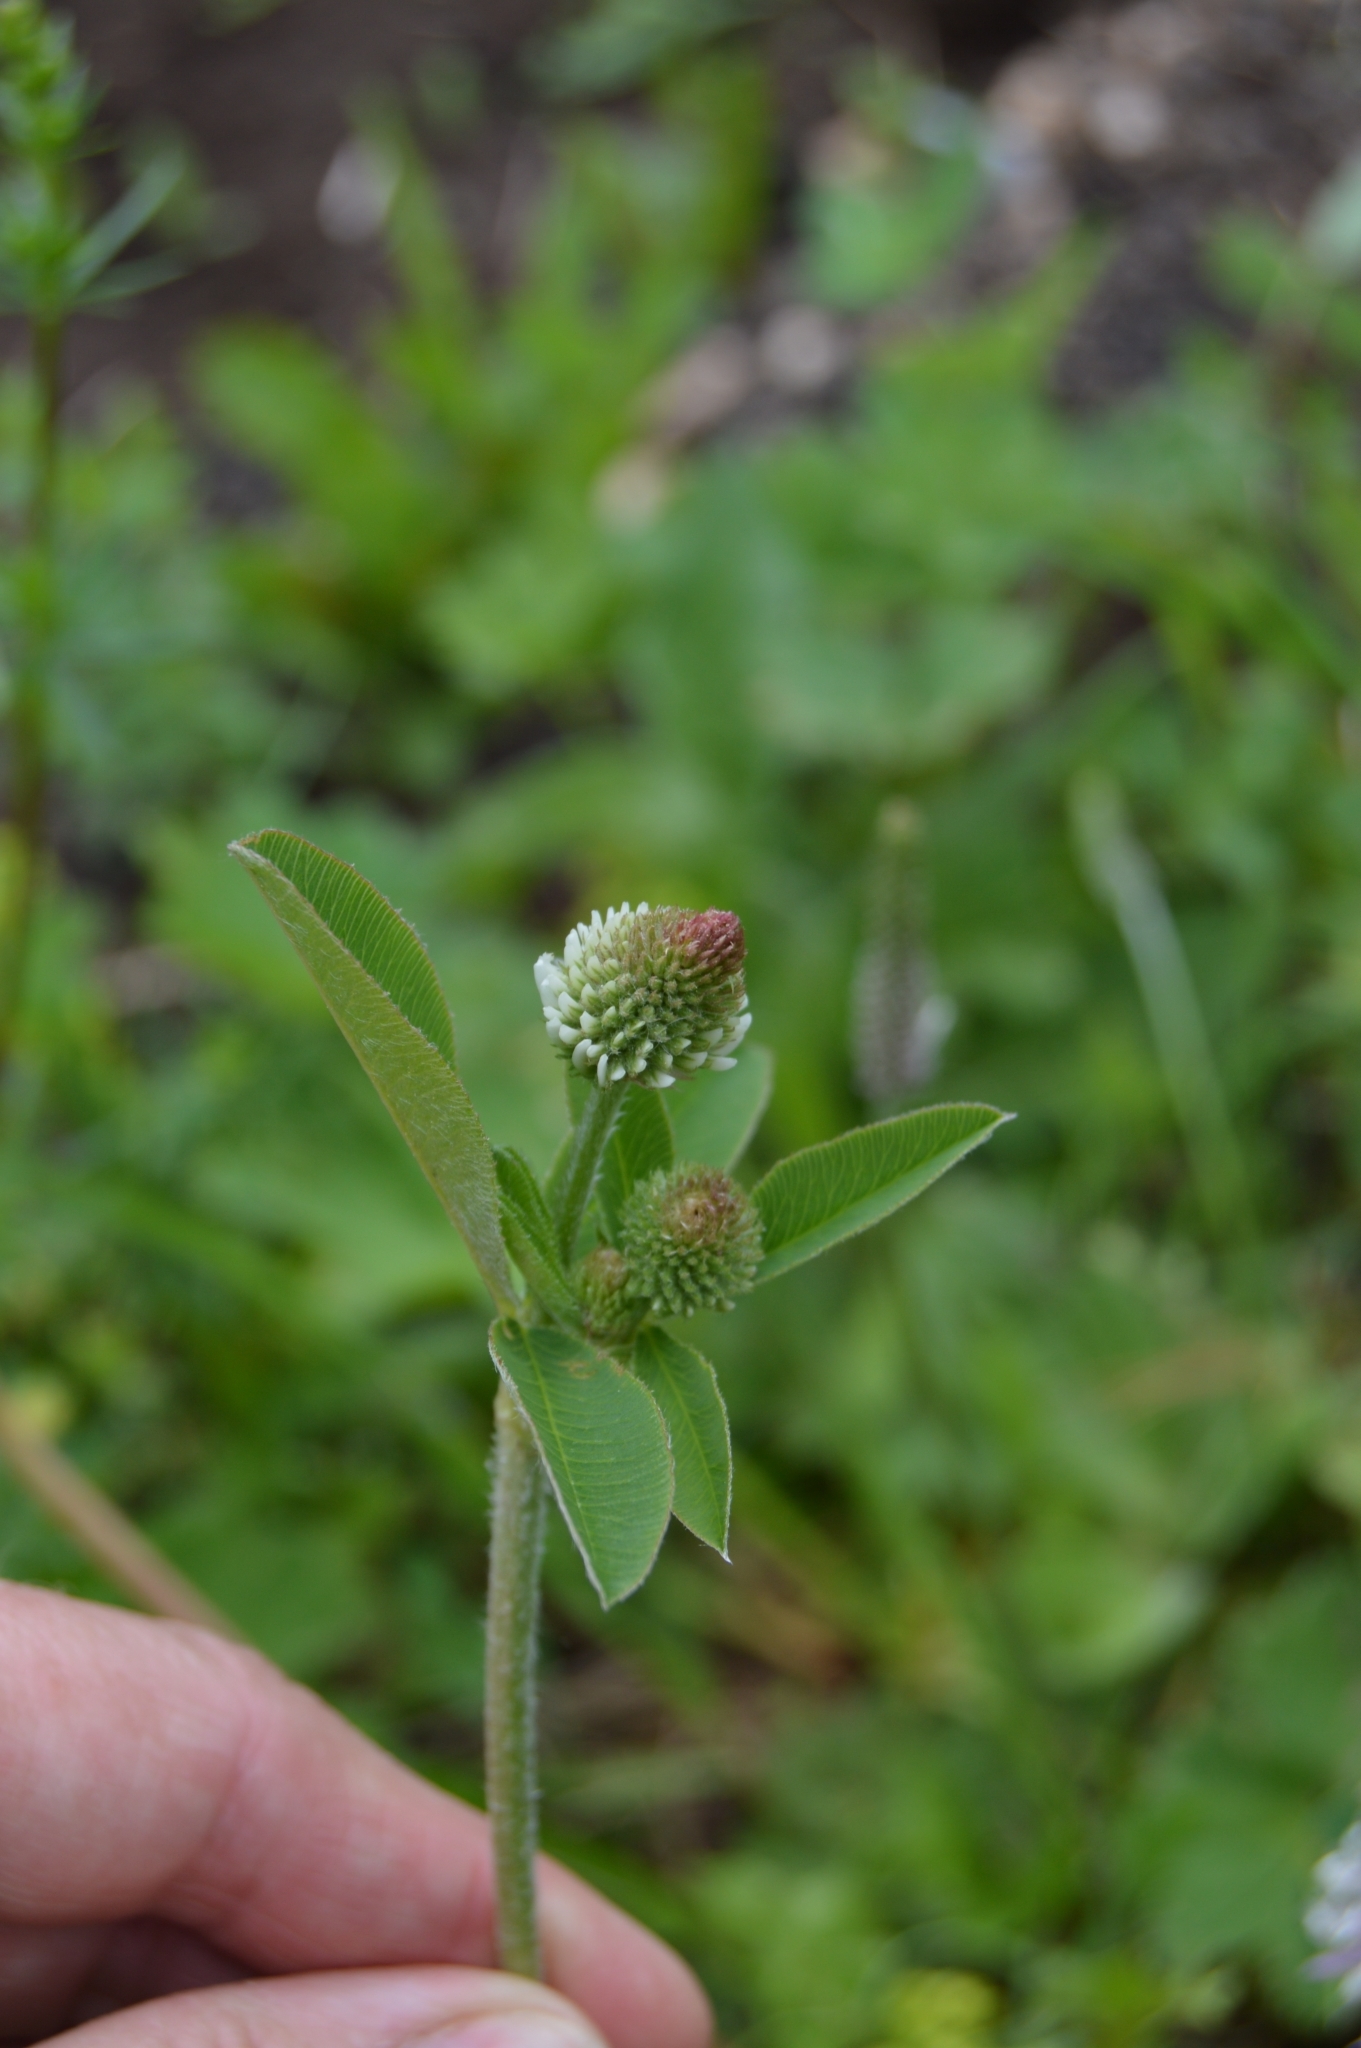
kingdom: Plantae
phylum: Tracheophyta
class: Magnoliopsida
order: Fabales
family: Fabaceae
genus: Trifolium
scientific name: Trifolium montanum
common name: Mountain clover
